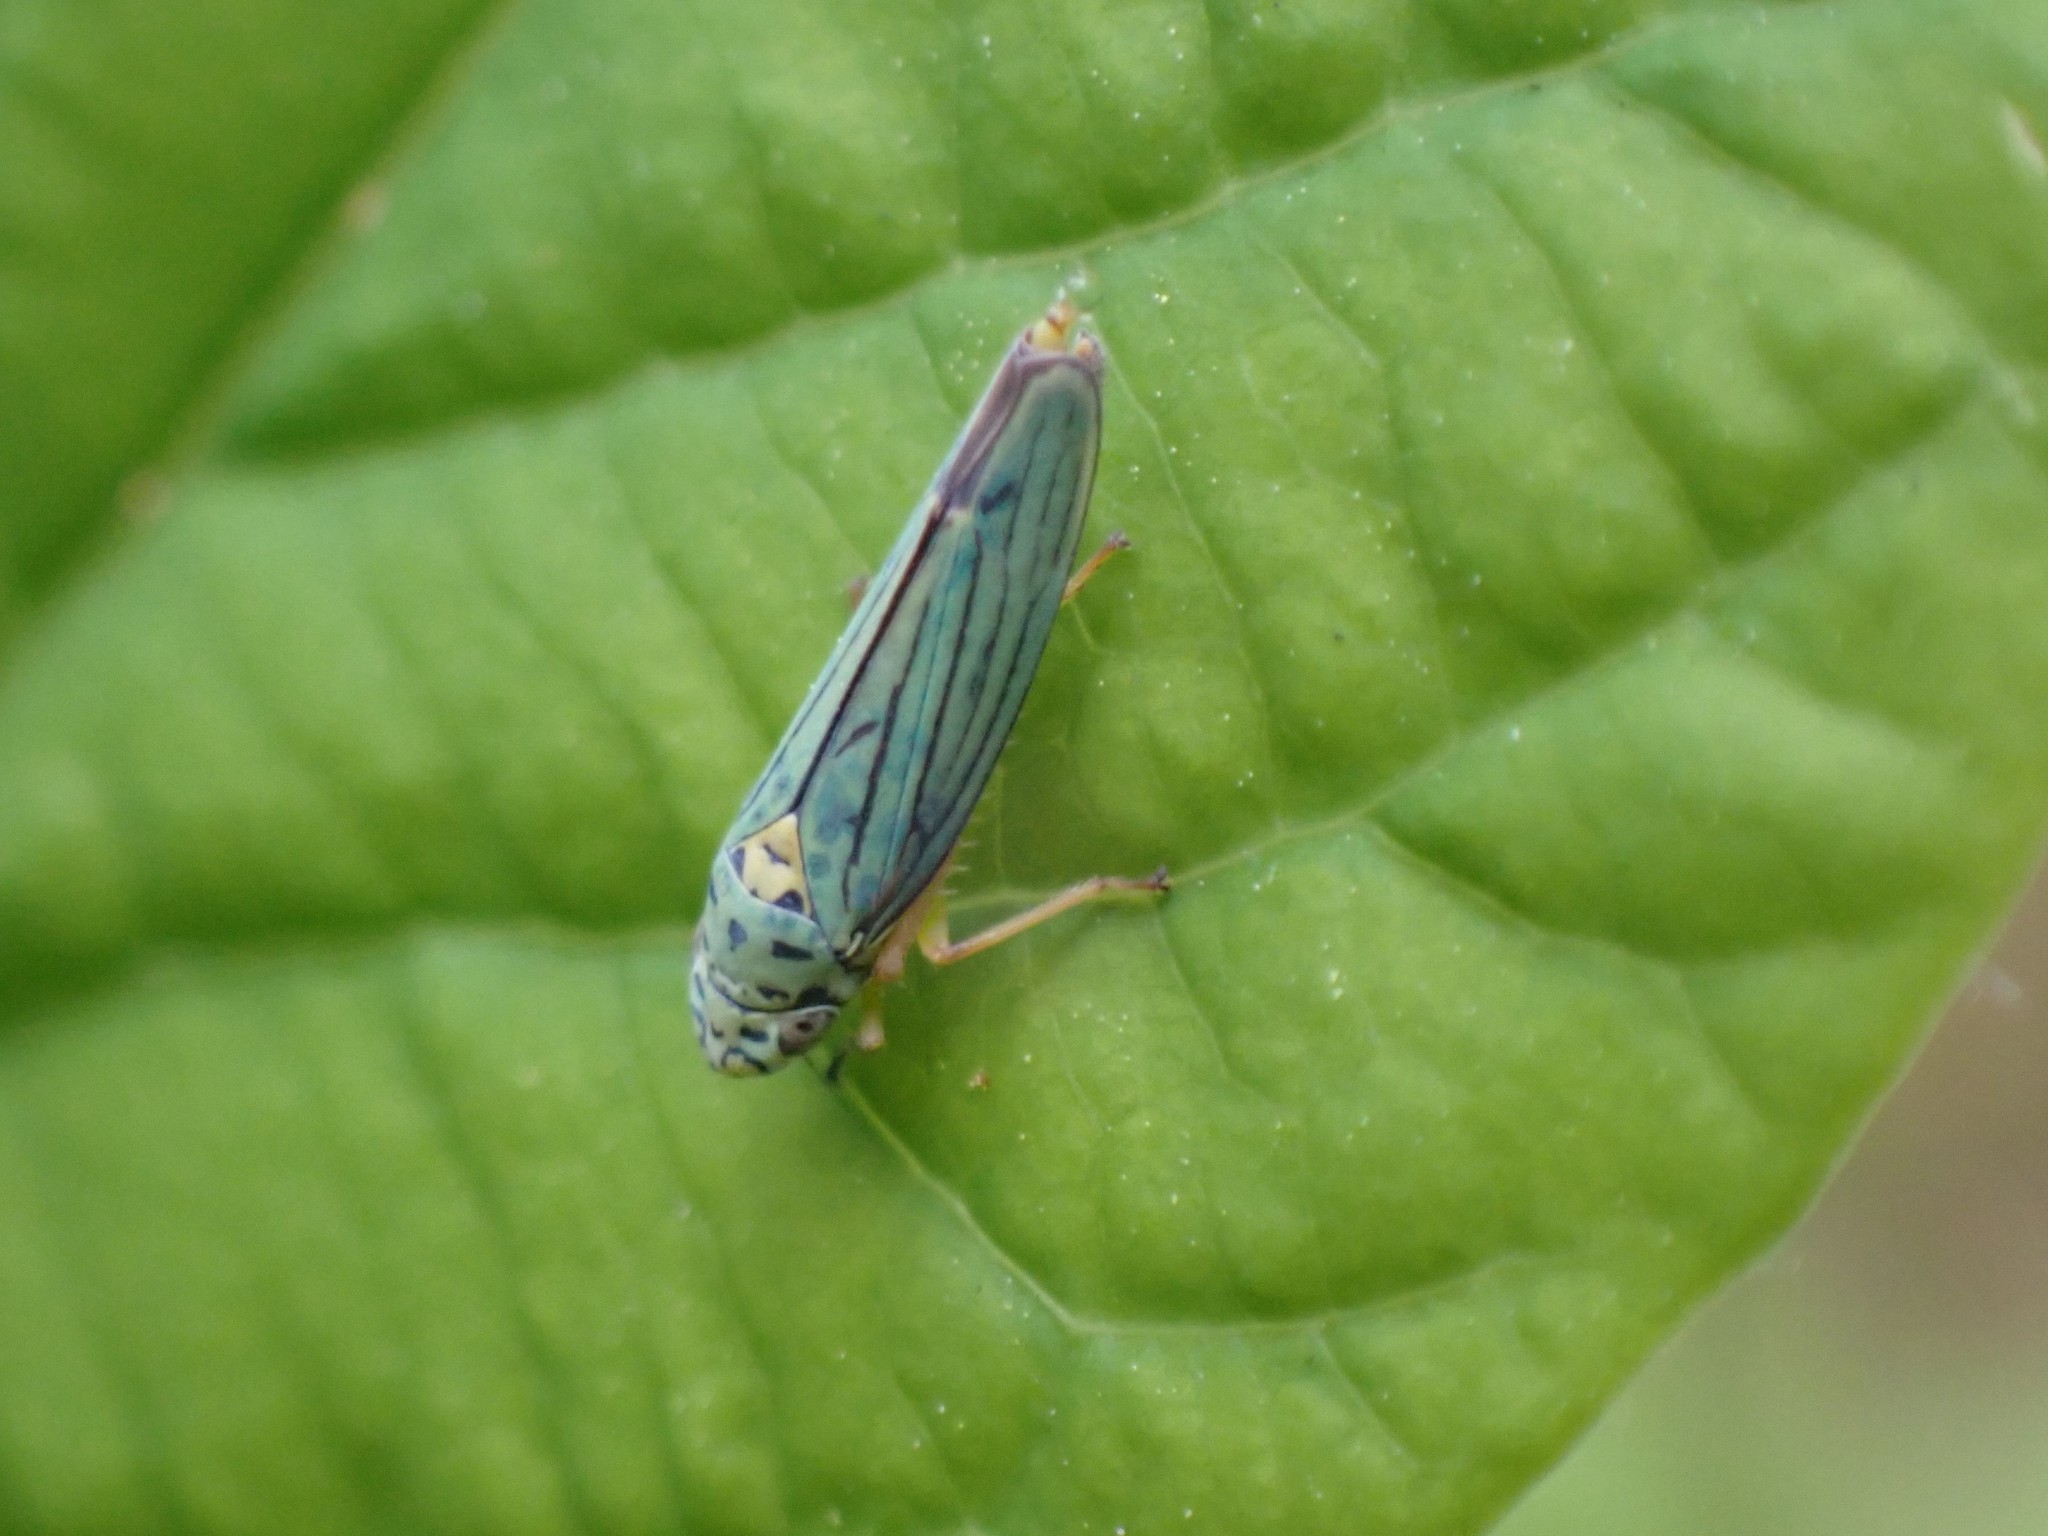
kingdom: Animalia
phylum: Arthropoda
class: Insecta
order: Hemiptera
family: Cicadellidae
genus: Graphocephala
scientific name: Graphocephala atropunctata
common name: Blue-green sharpshooter
